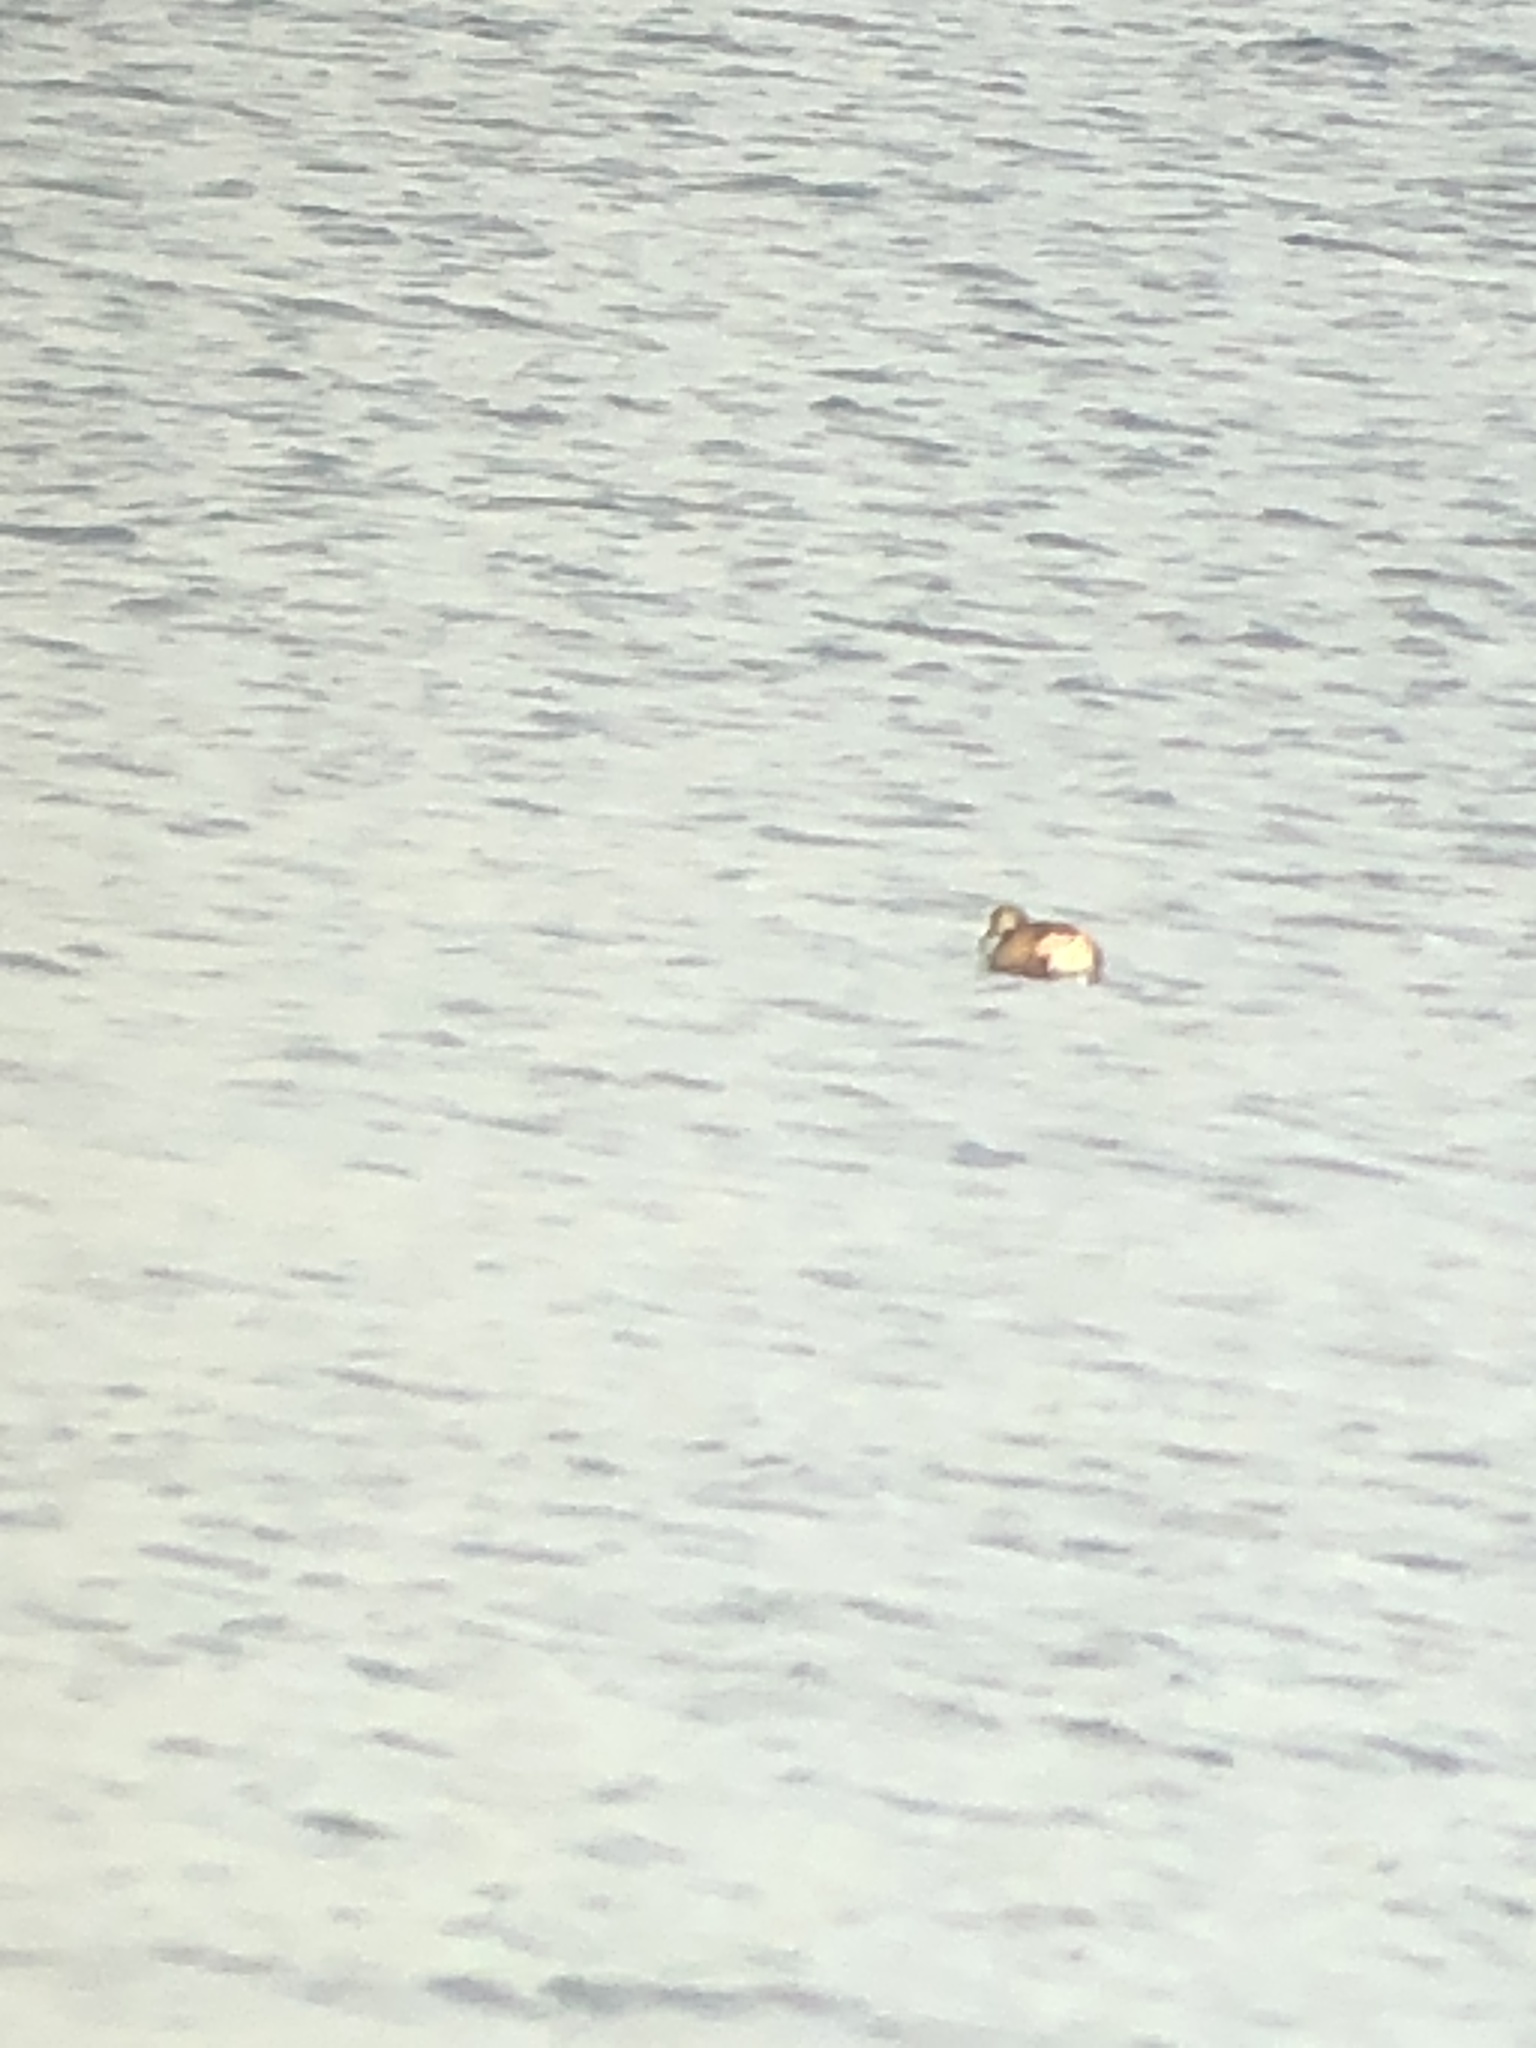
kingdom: Animalia
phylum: Chordata
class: Aves
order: Podicipediformes
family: Podicipedidae
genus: Tachybaptus
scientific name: Tachybaptus ruficollis
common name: Little grebe
